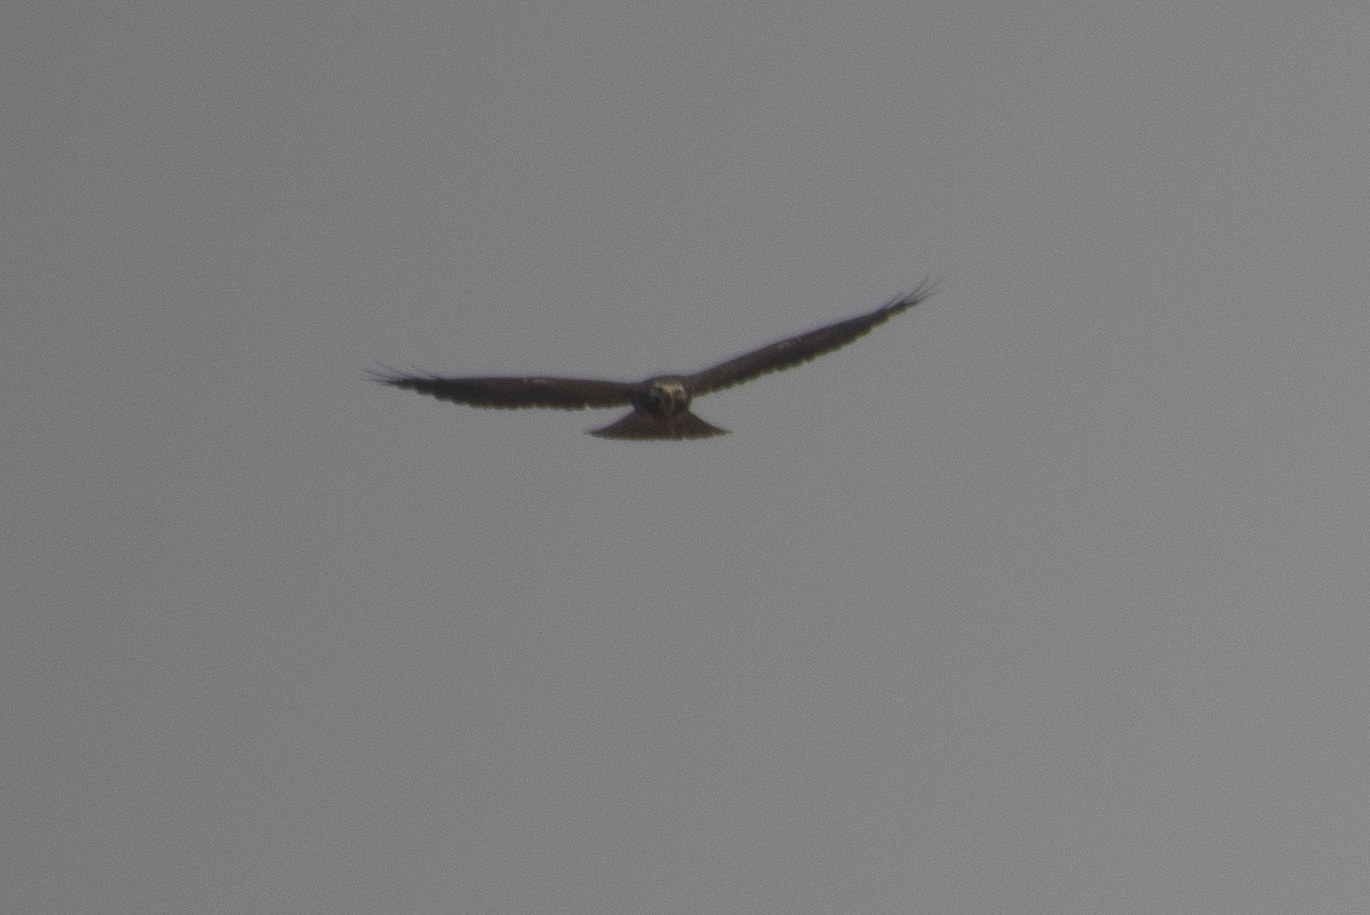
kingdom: Animalia
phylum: Chordata
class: Aves
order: Accipitriformes
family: Accipitridae
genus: Buteo
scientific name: Buteo swainsoni
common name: Swainson's hawk
